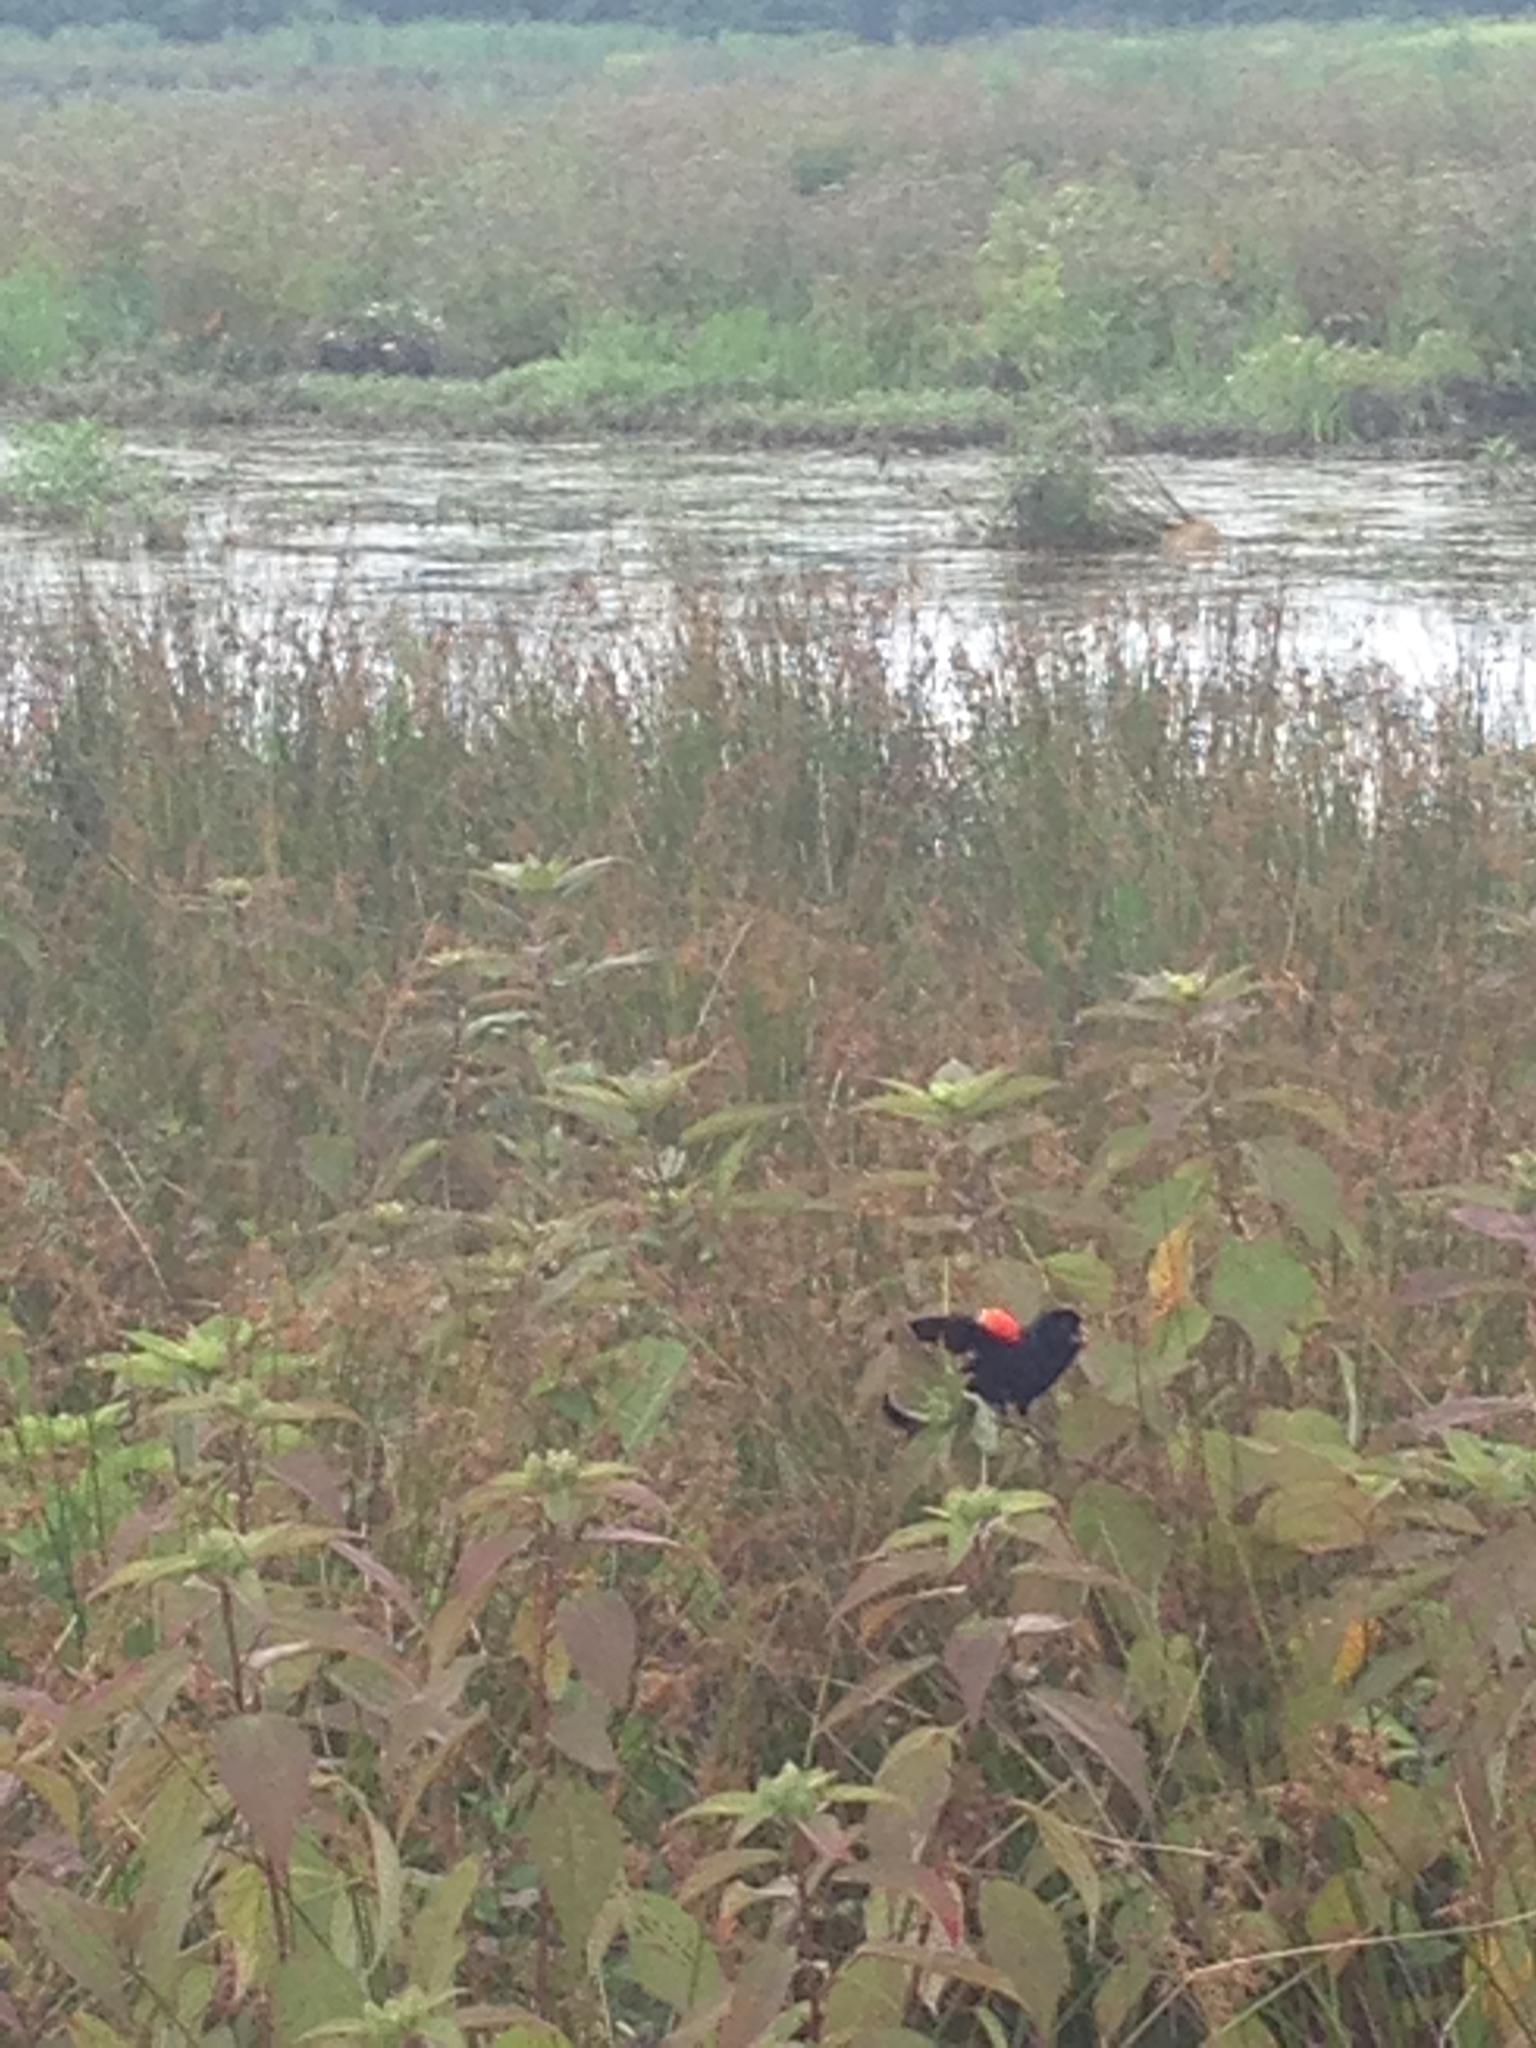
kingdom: Animalia
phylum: Chordata
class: Aves
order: Passeriformes
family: Icteridae
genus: Agelaius
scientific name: Agelaius phoeniceus
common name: Red-winged blackbird
